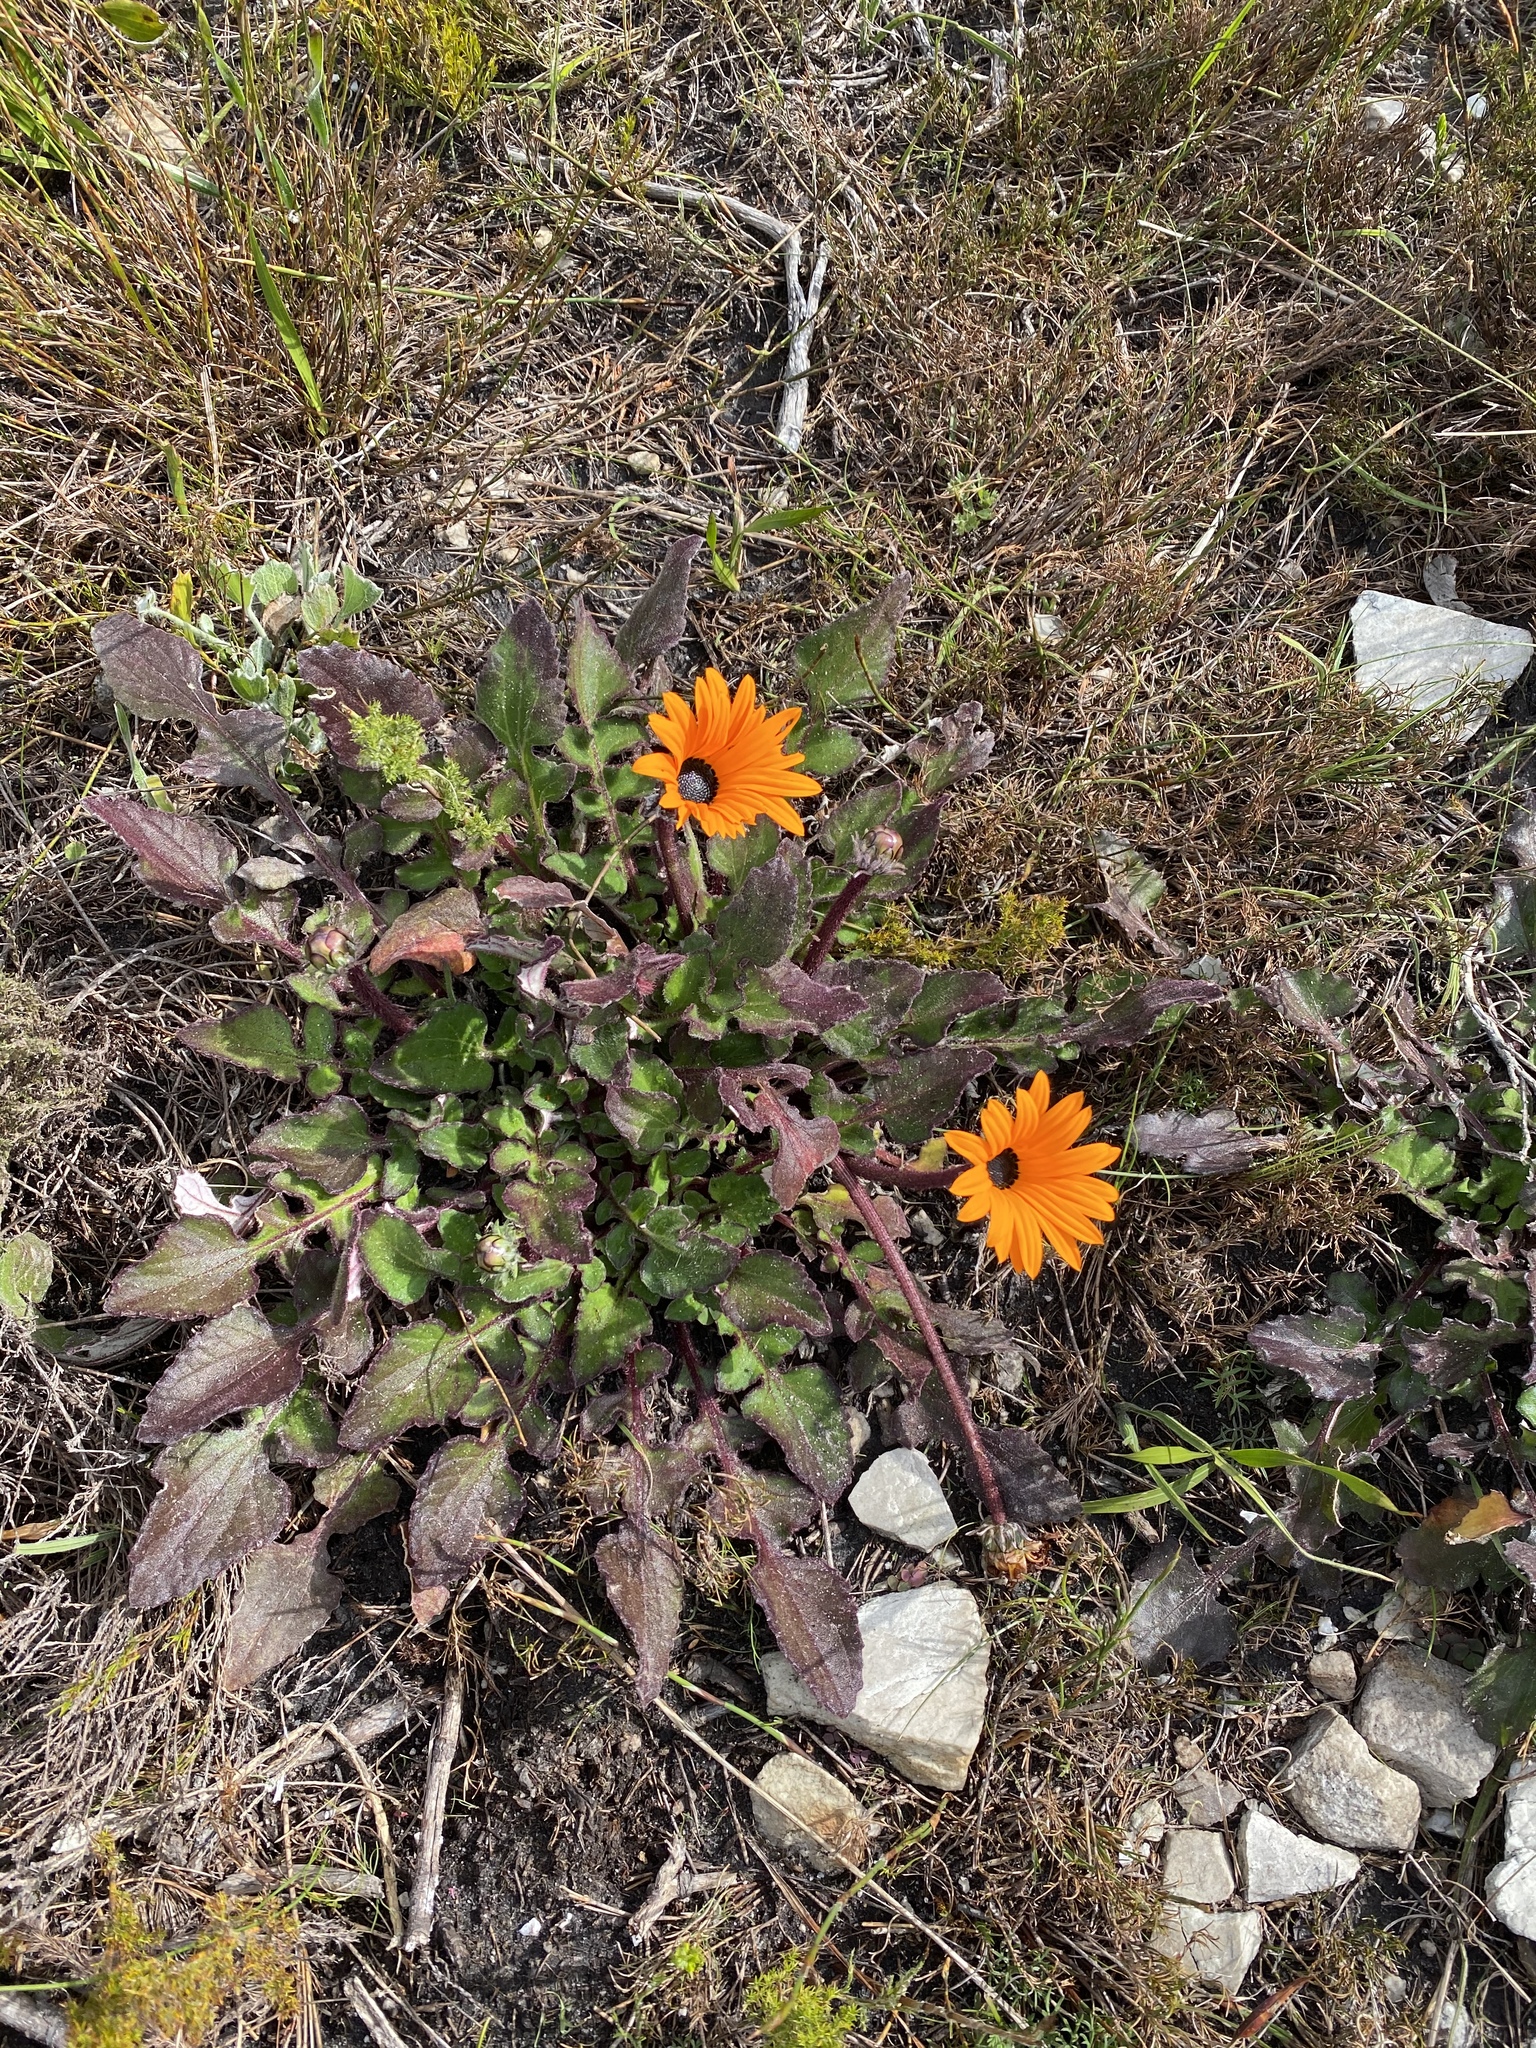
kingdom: Plantae
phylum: Tracheophyta
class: Magnoliopsida
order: Asterales
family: Asteraceae
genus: Arctotis
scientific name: Arctotis acaulis
